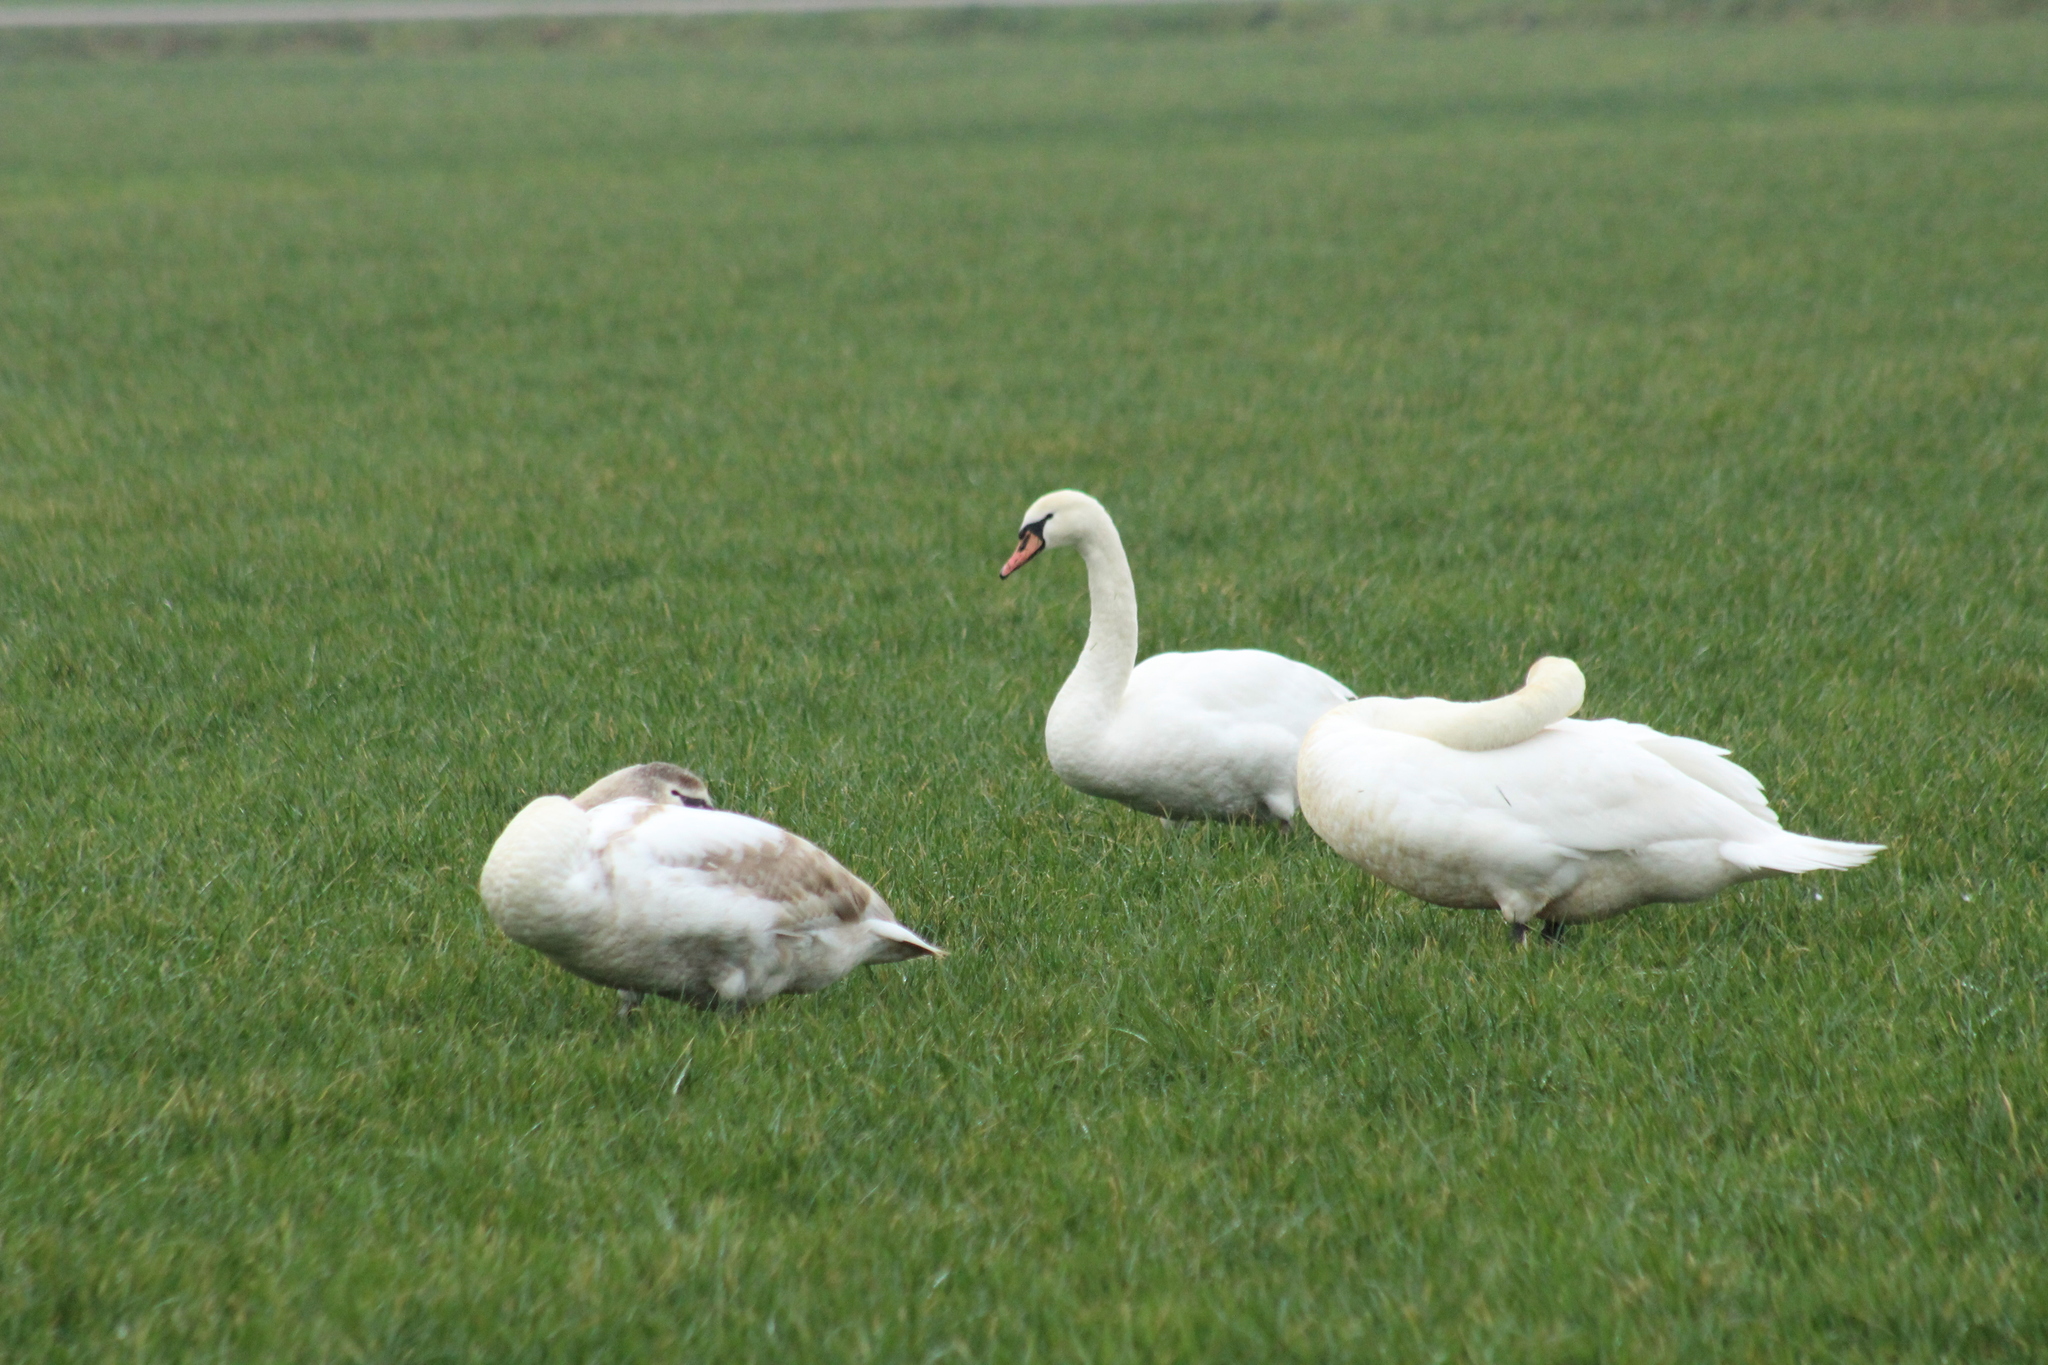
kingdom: Animalia
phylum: Chordata
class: Aves
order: Anseriformes
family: Anatidae
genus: Cygnus
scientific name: Cygnus olor
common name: Mute swan
